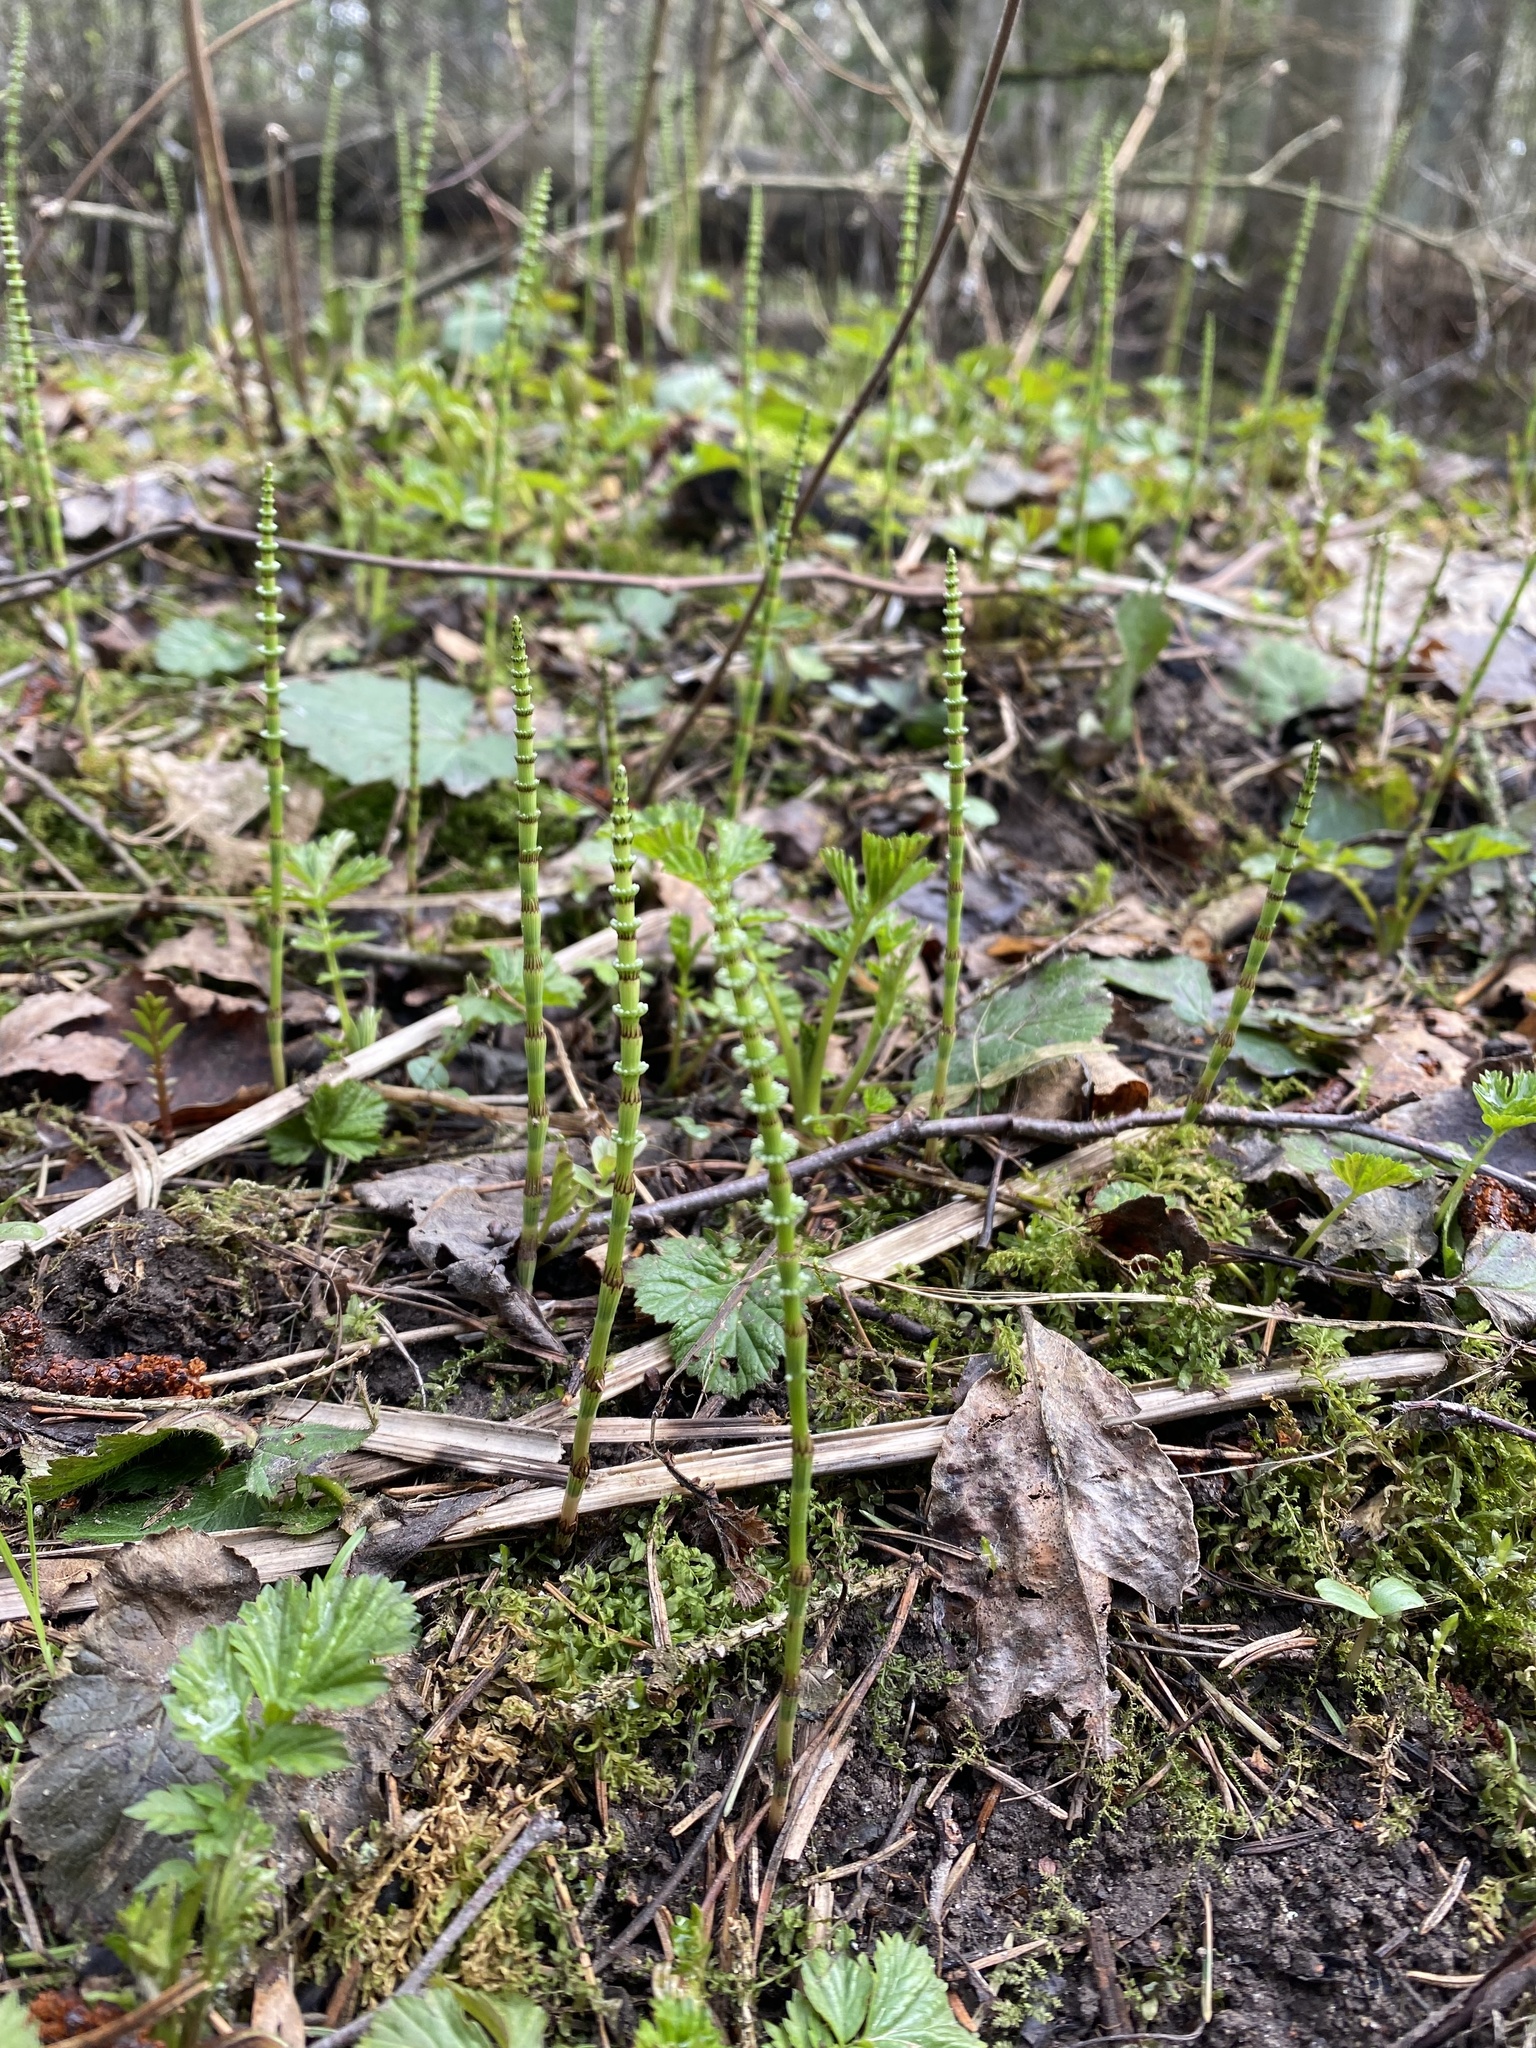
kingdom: Plantae
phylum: Tracheophyta
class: Polypodiopsida
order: Equisetales
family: Equisetaceae
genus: Equisetum
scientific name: Equisetum pratense
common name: Meadow horsetail
